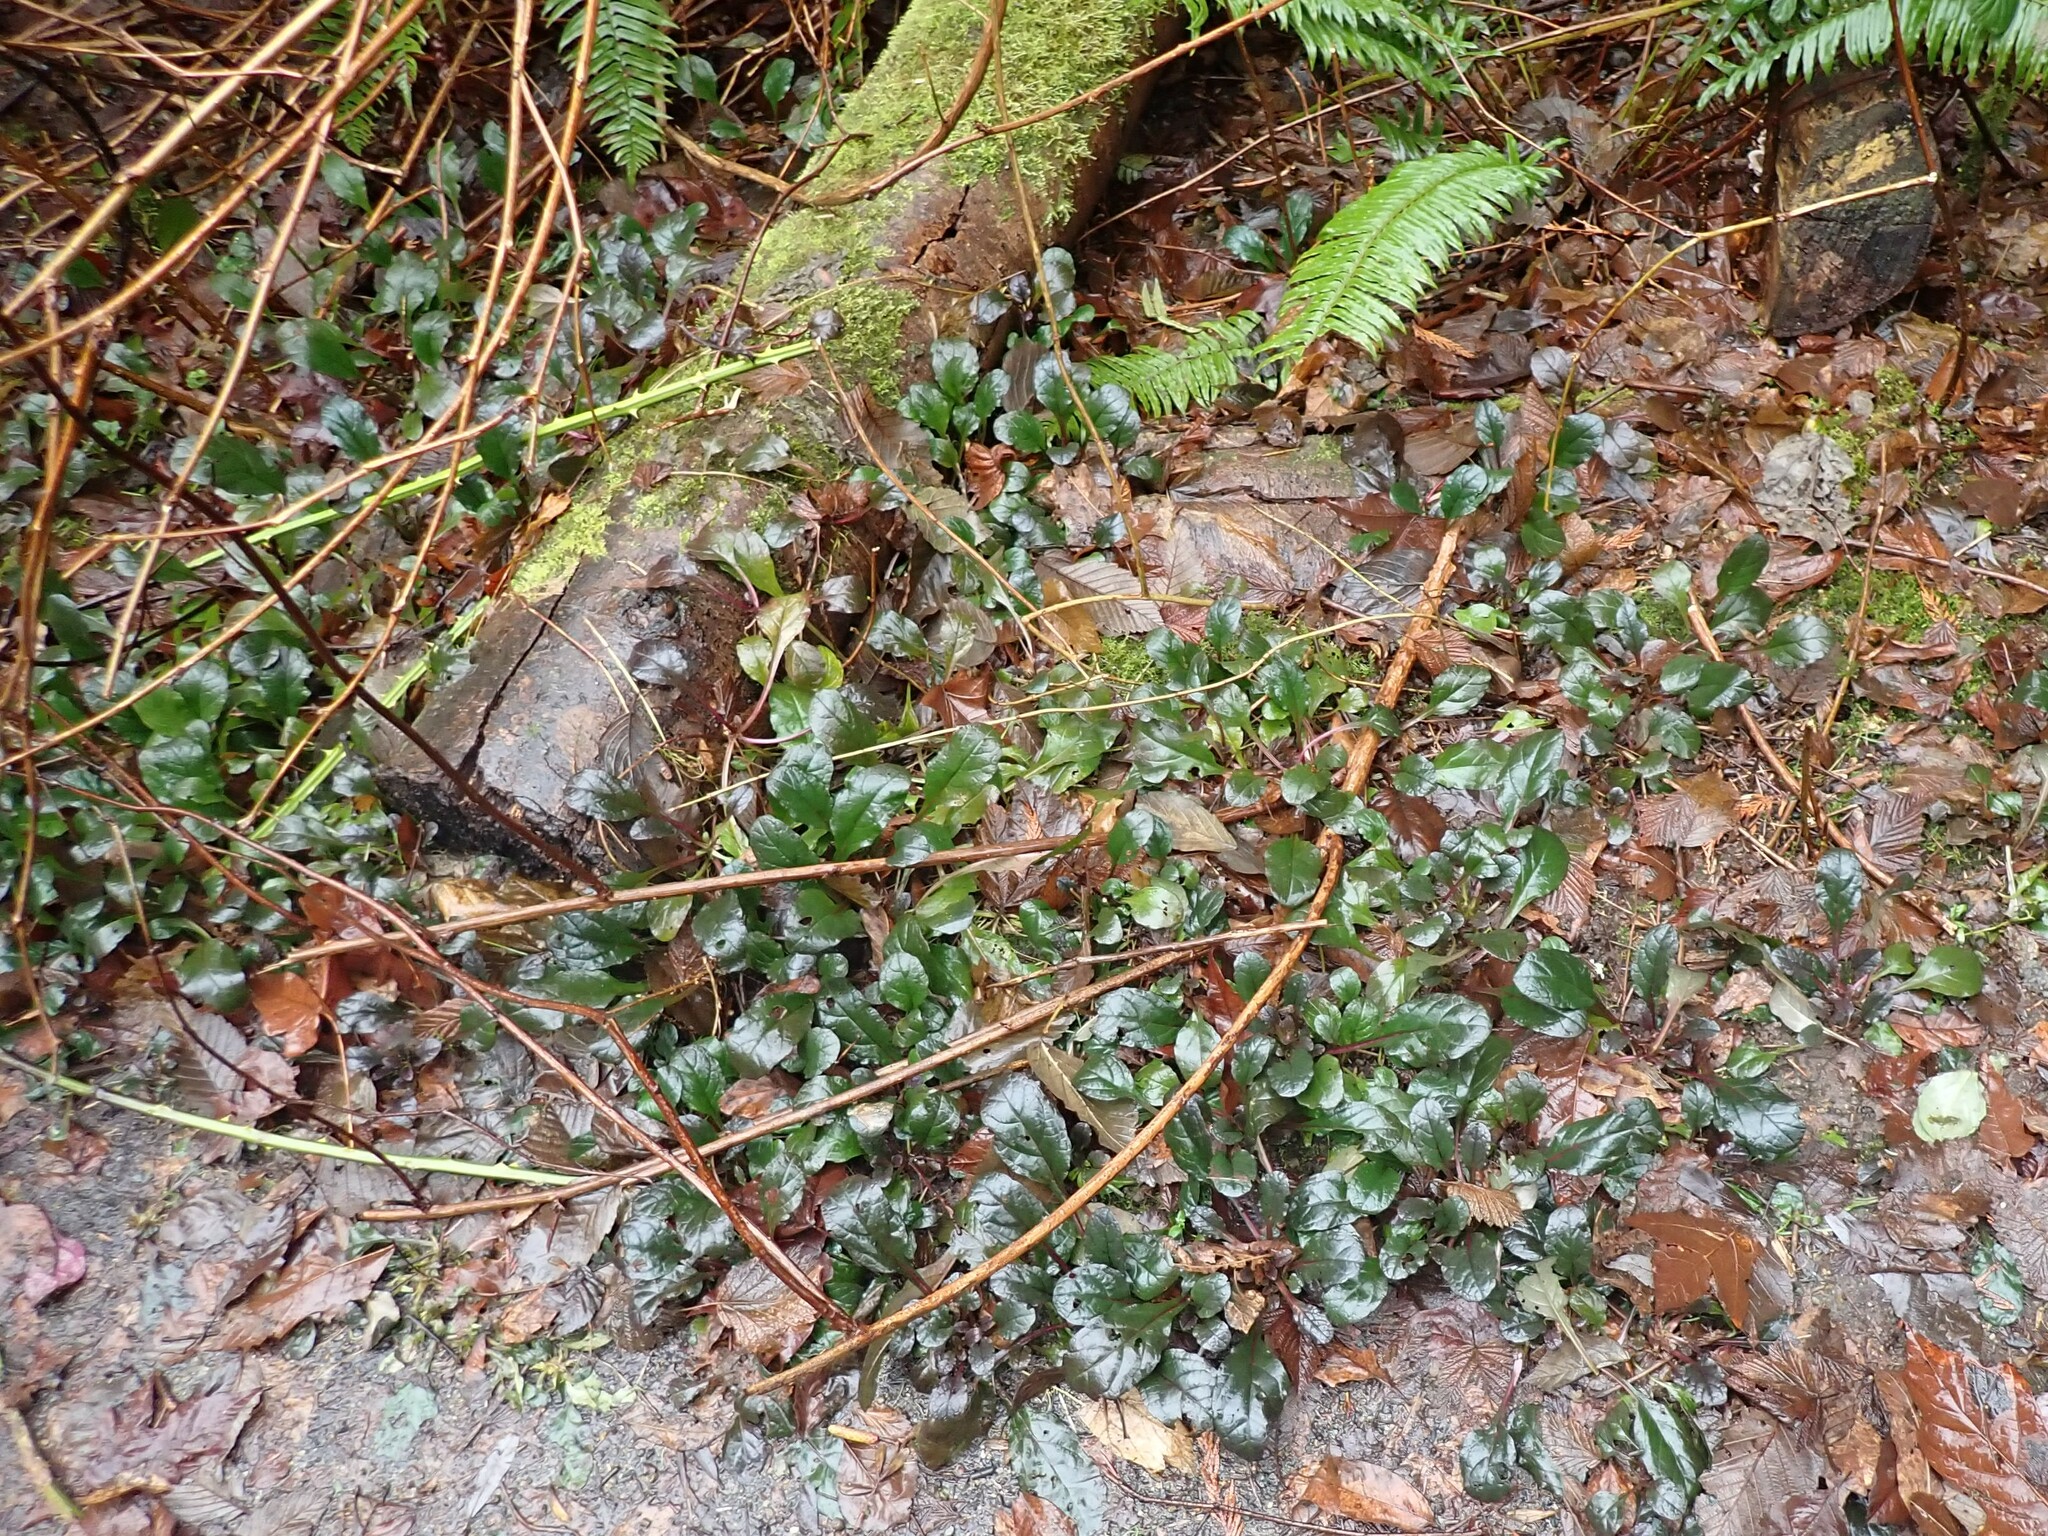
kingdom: Plantae
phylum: Tracheophyta
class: Magnoliopsida
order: Lamiales
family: Lamiaceae
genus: Ajuga
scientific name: Ajuga reptans
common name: Bugle
